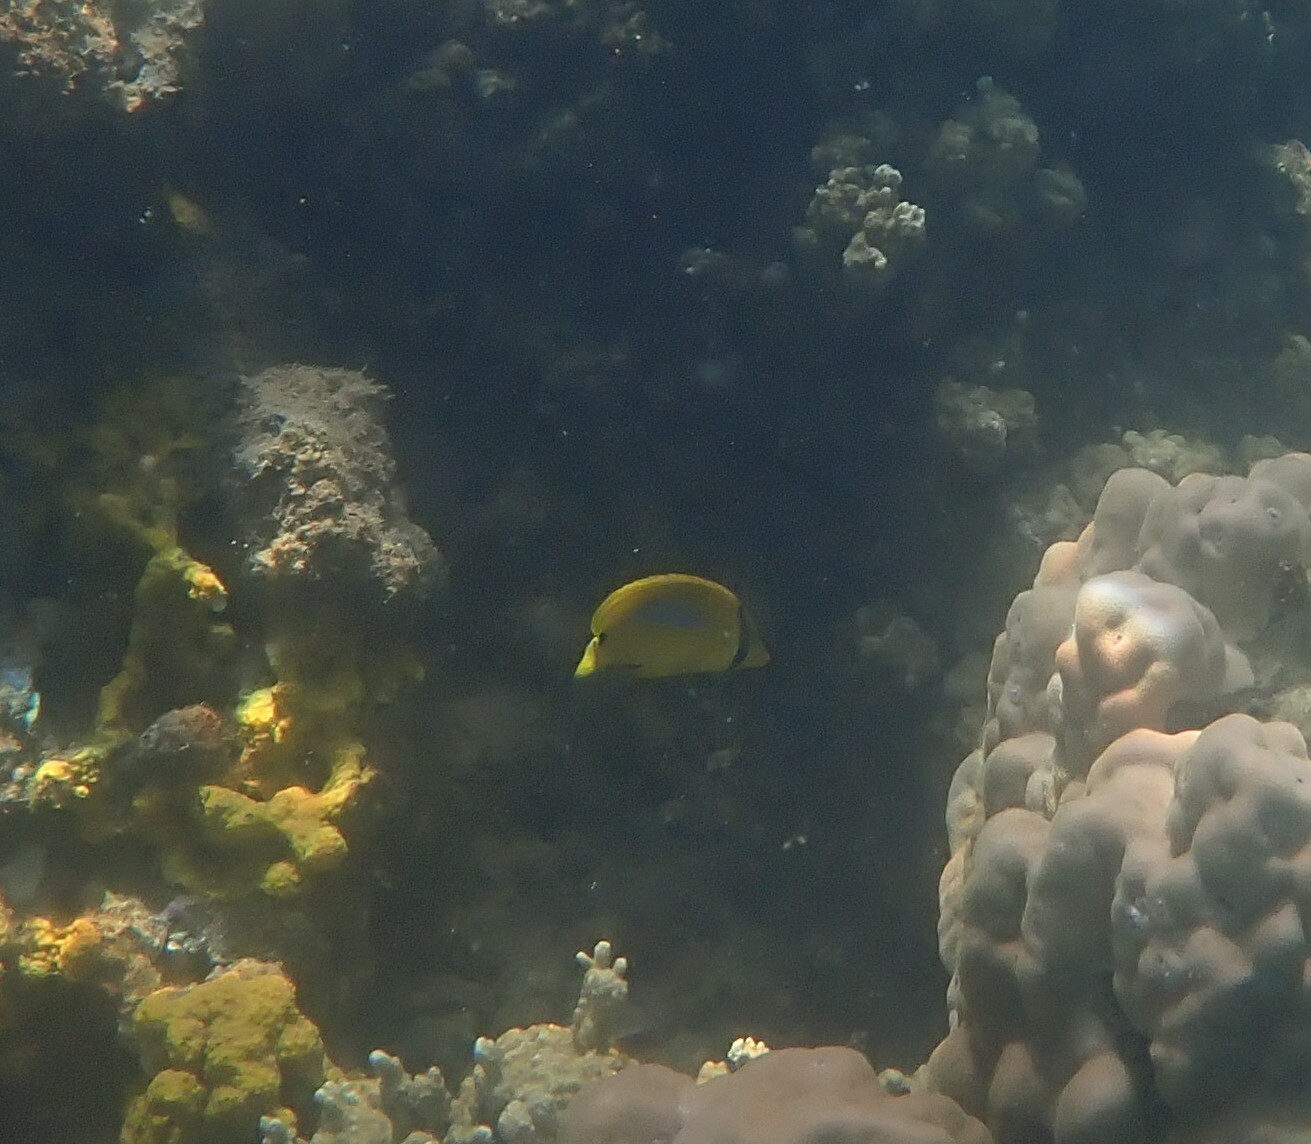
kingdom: Animalia
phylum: Chordata
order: Perciformes
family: Chaetodontidae
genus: Chaetodon
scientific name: Chaetodon plebeius
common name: Bluespot butterflyfish
